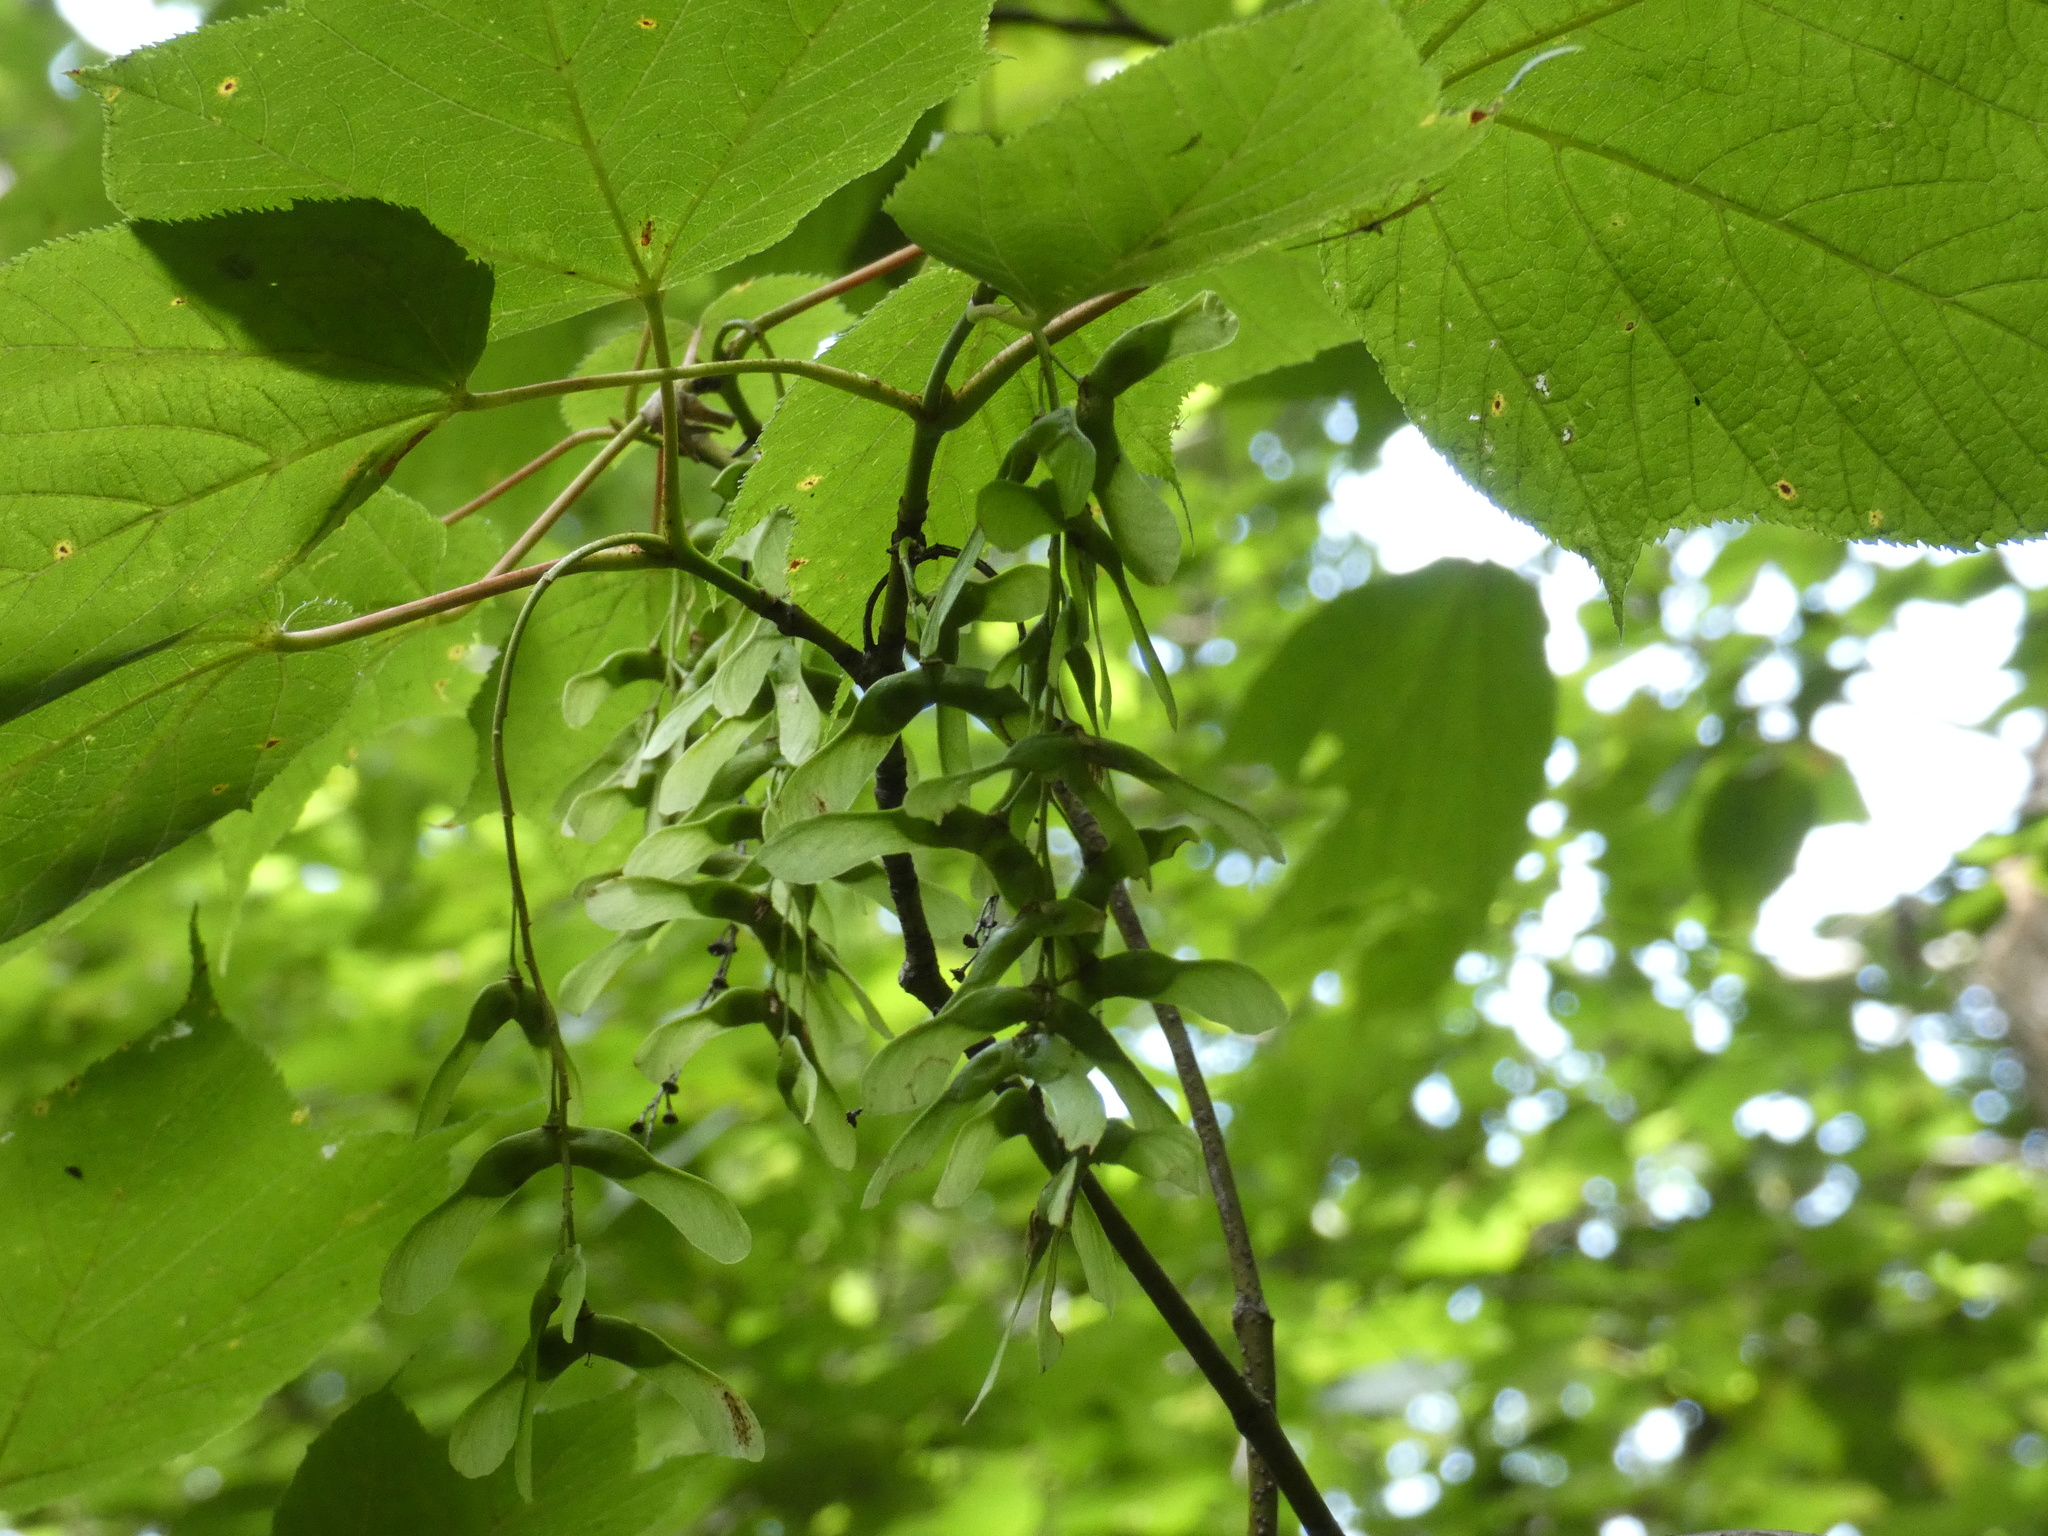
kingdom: Plantae
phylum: Tracheophyta
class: Magnoliopsida
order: Sapindales
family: Sapindaceae
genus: Acer
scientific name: Acer pensylvanicum
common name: Moosewood
